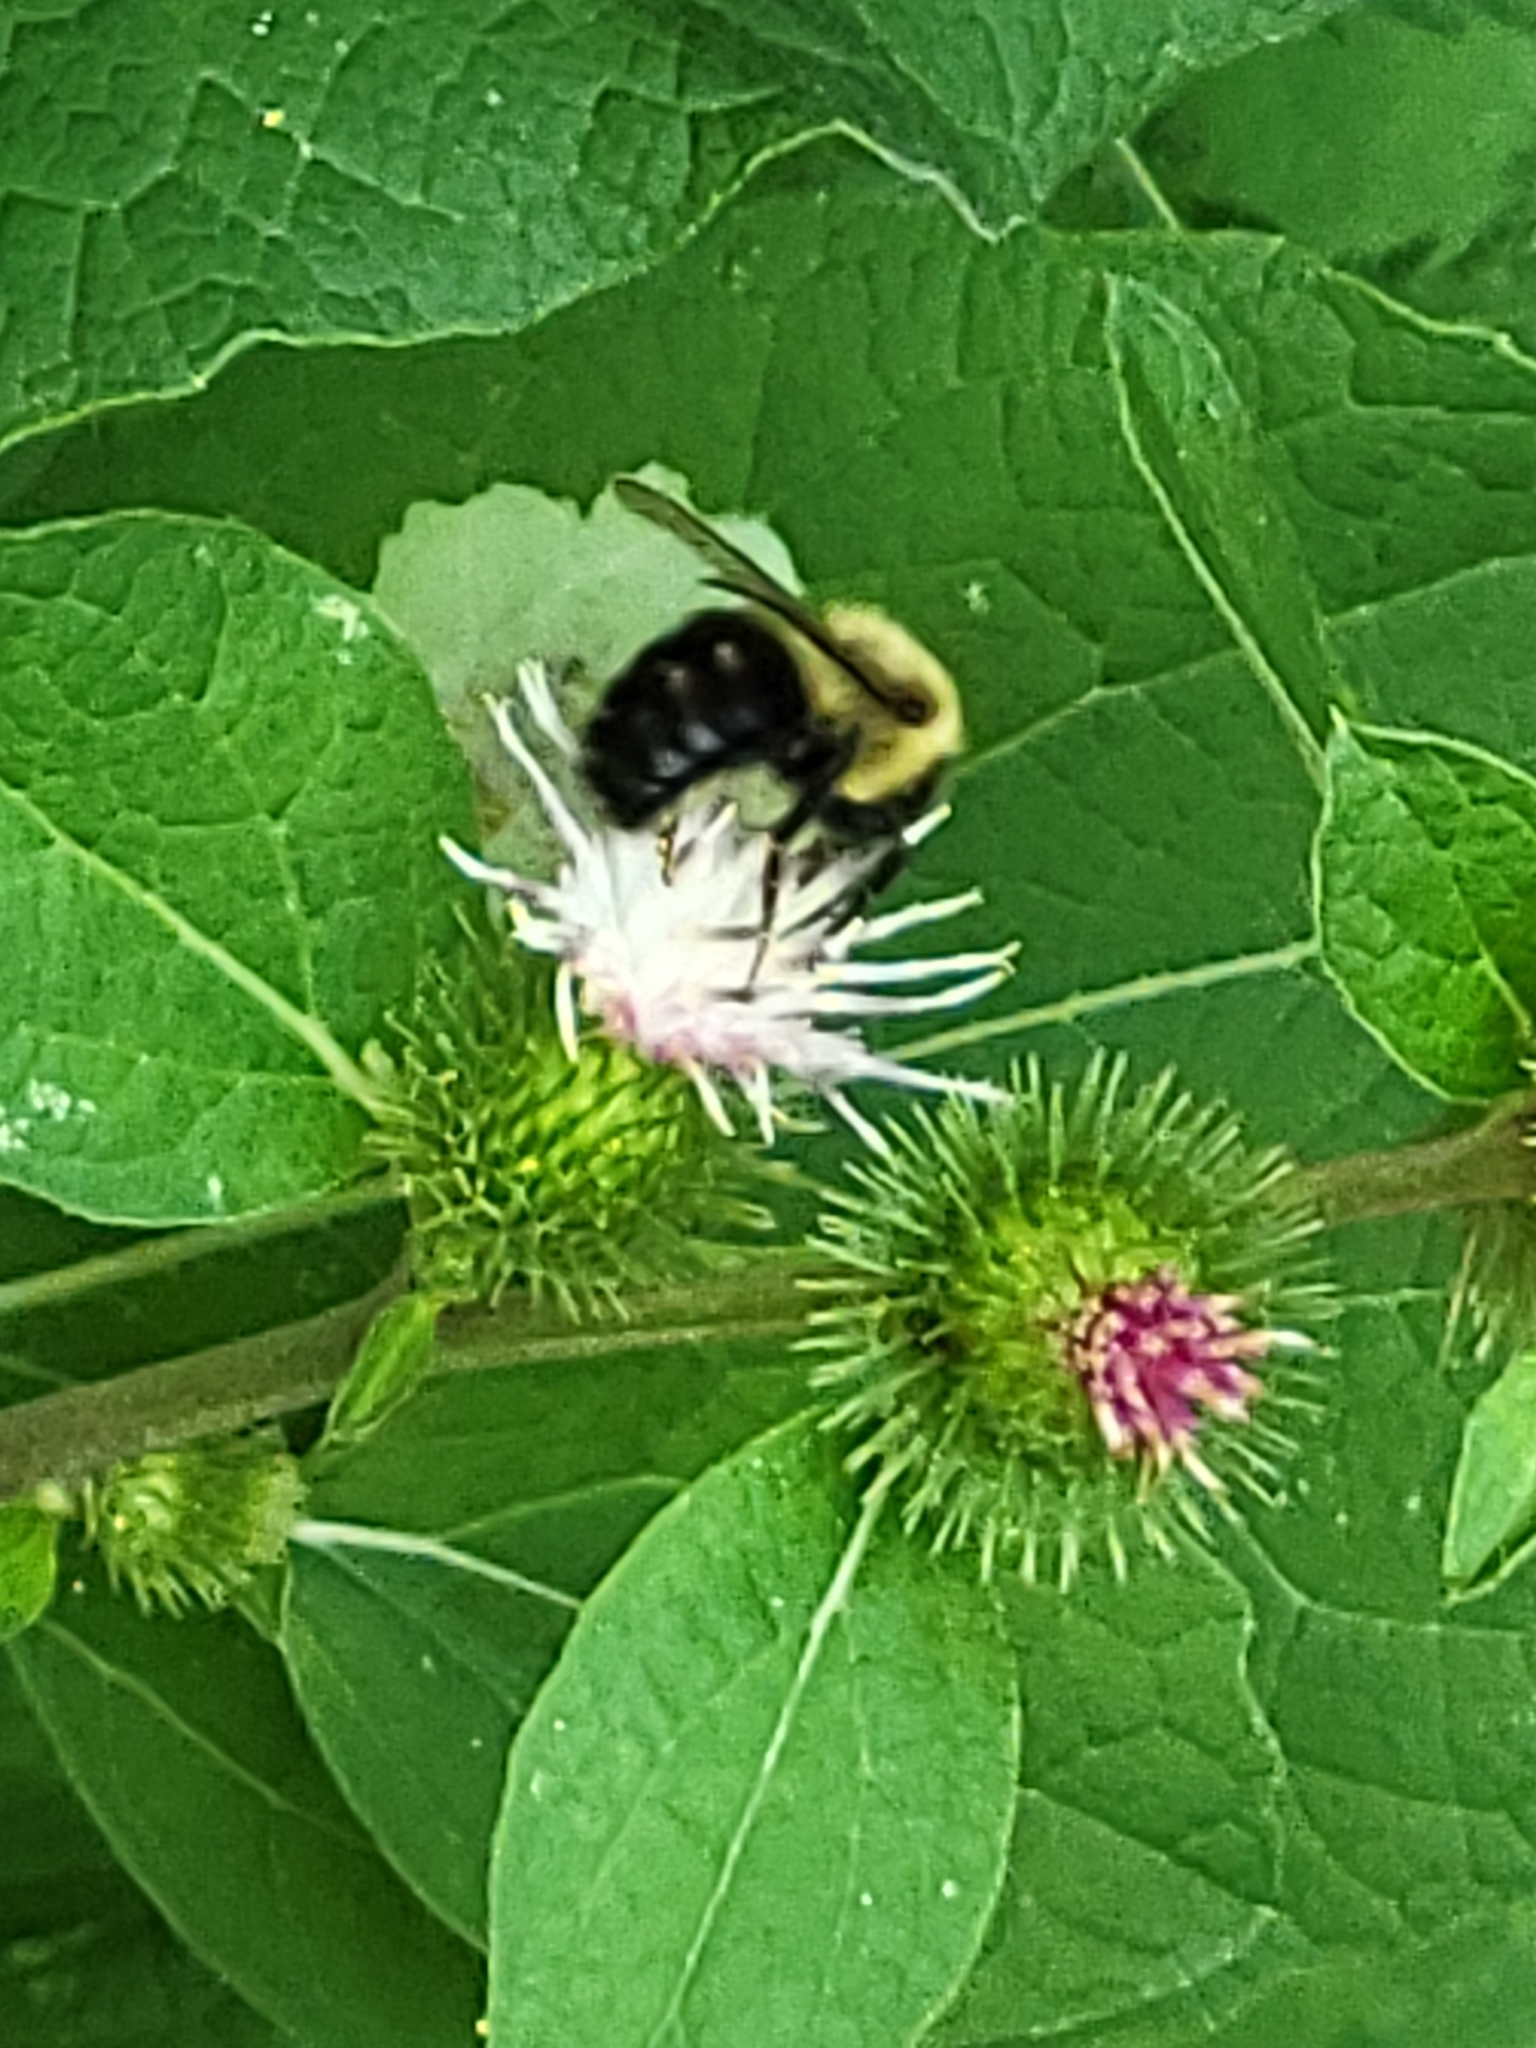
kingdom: Animalia
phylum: Arthropoda
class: Insecta
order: Hymenoptera
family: Apidae
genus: Bombus
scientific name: Bombus impatiens
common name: Common eastern bumble bee
